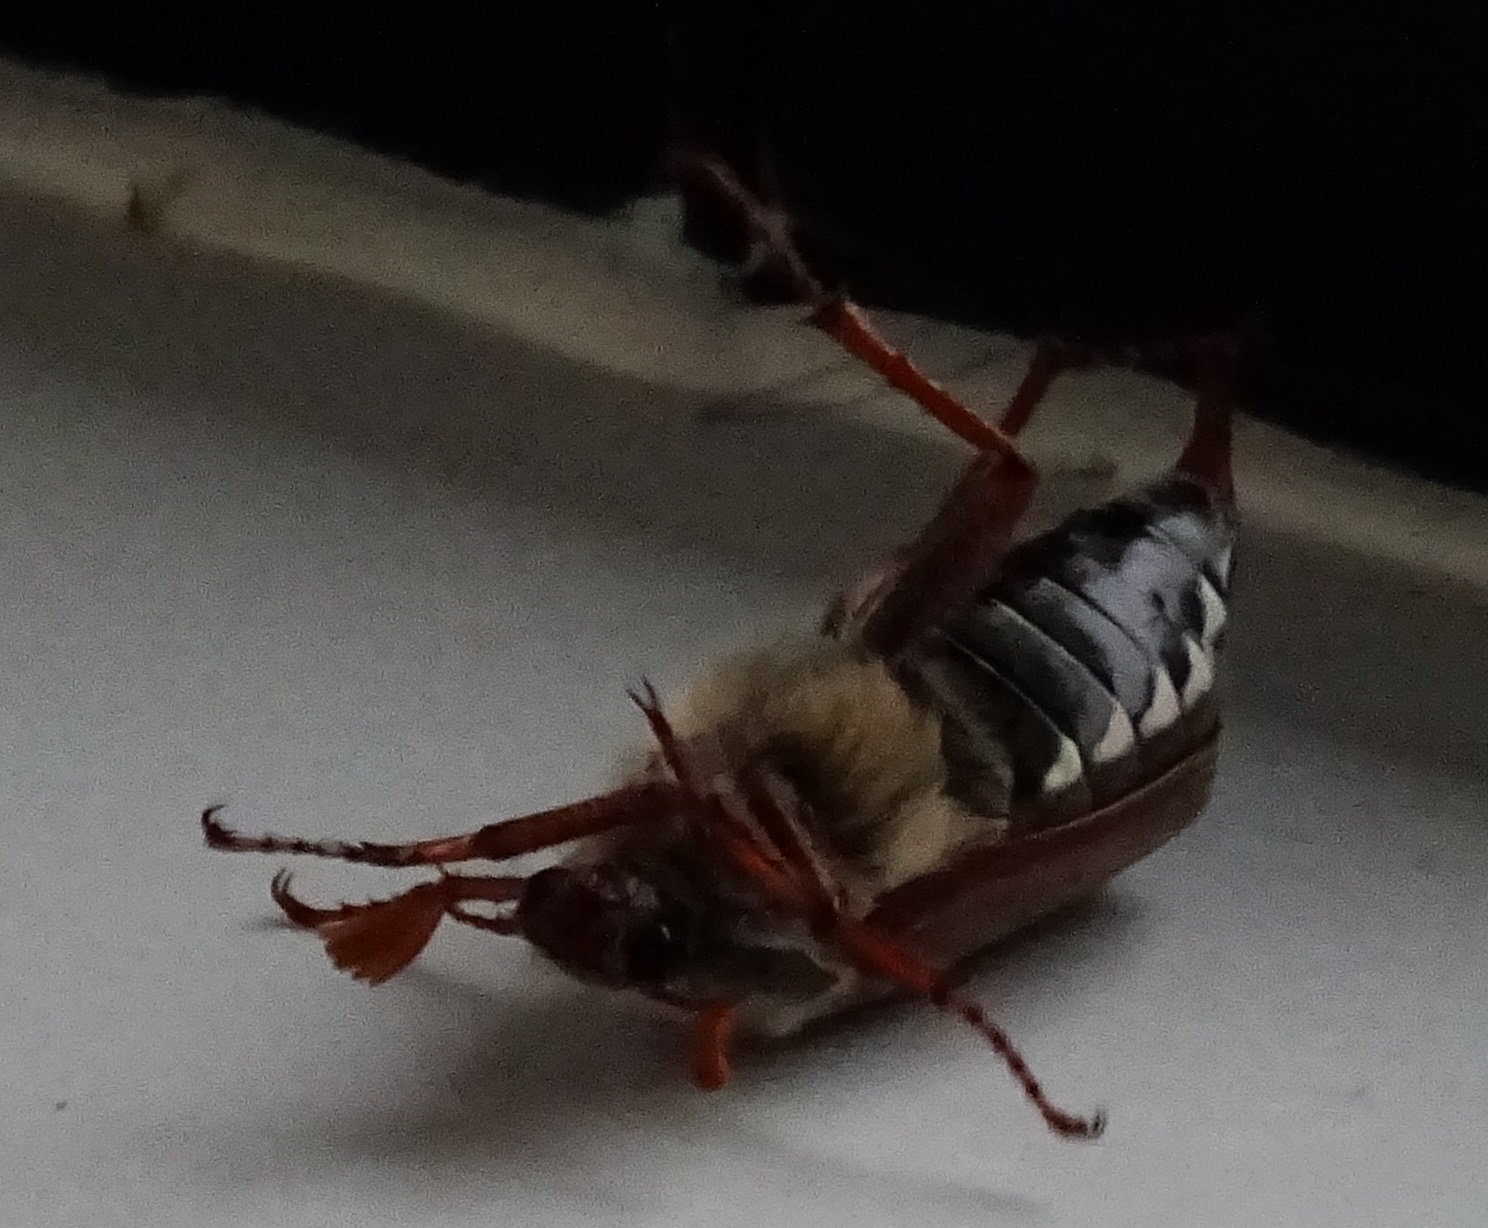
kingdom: Animalia
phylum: Arthropoda
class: Insecta
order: Coleoptera
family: Scarabaeidae
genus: Melolontha
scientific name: Melolontha melolontha
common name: Cockchafer maybeetle
